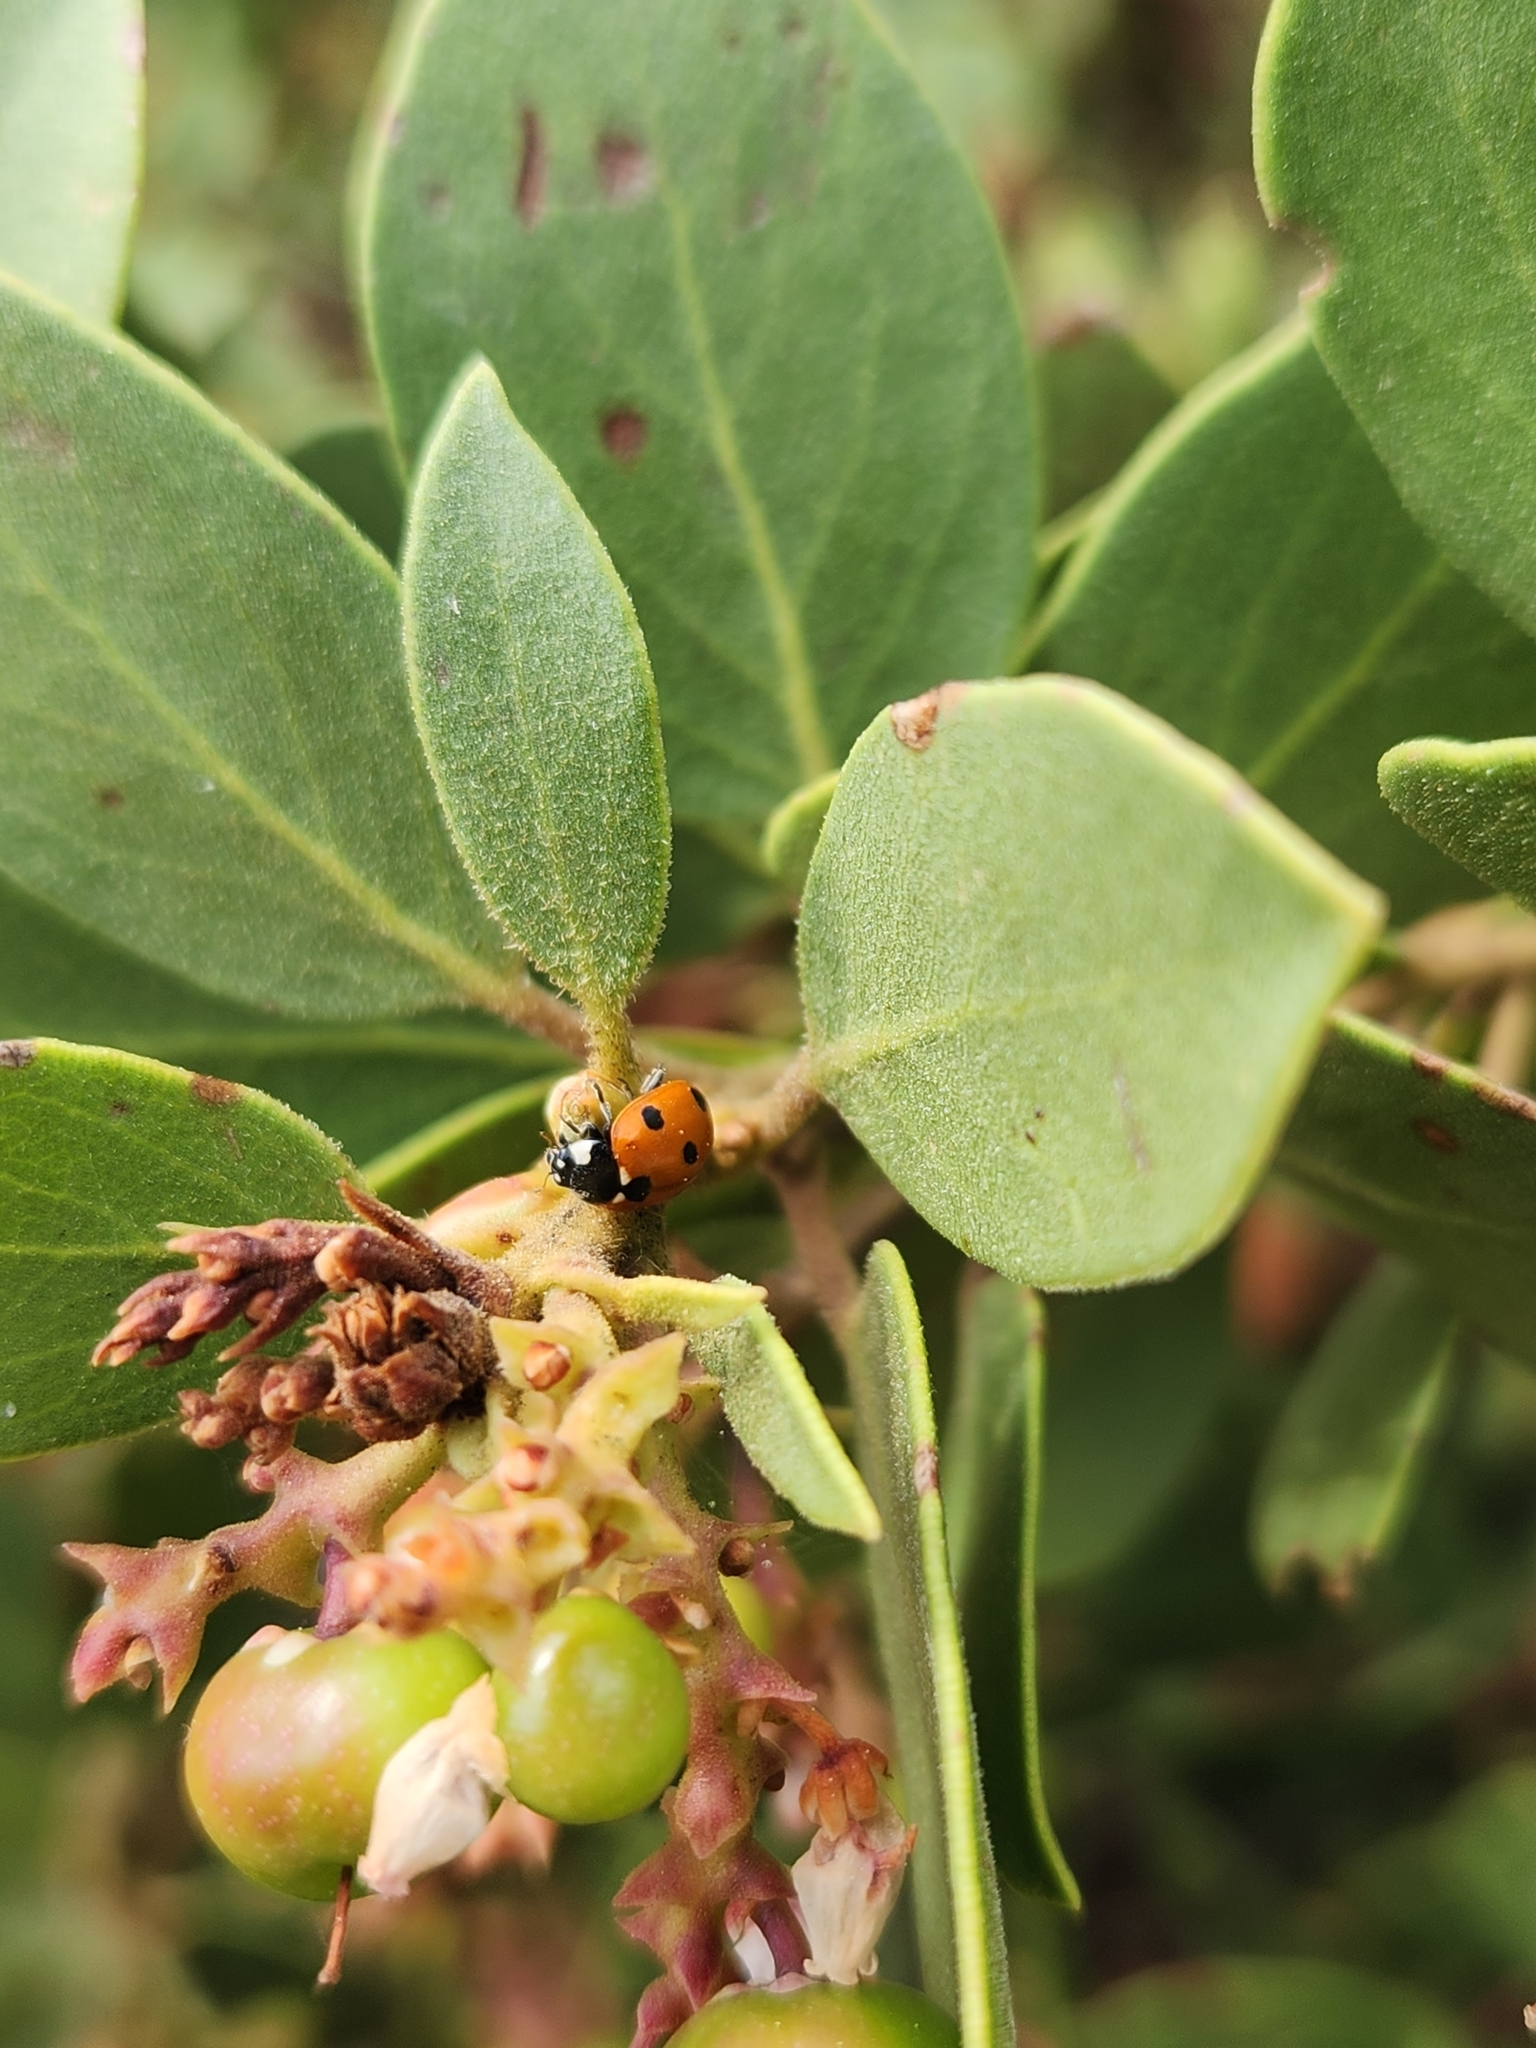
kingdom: Animalia
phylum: Arthropoda
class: Insecta
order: Coleoptera
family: Coccinellidae
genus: Coccinella
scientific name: Coccinella septempunctata
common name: Sevenspotted lady beetle
